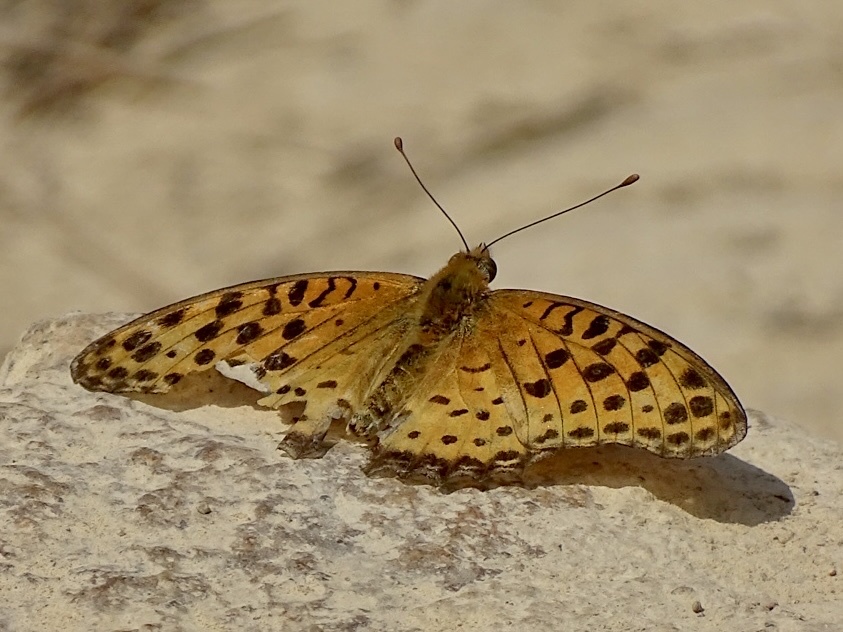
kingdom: Animalia
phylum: Arthropoda
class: Insecta
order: Lepidoptera
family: Nymphalidae
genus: Argynnis
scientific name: Argynnis hyperbius
